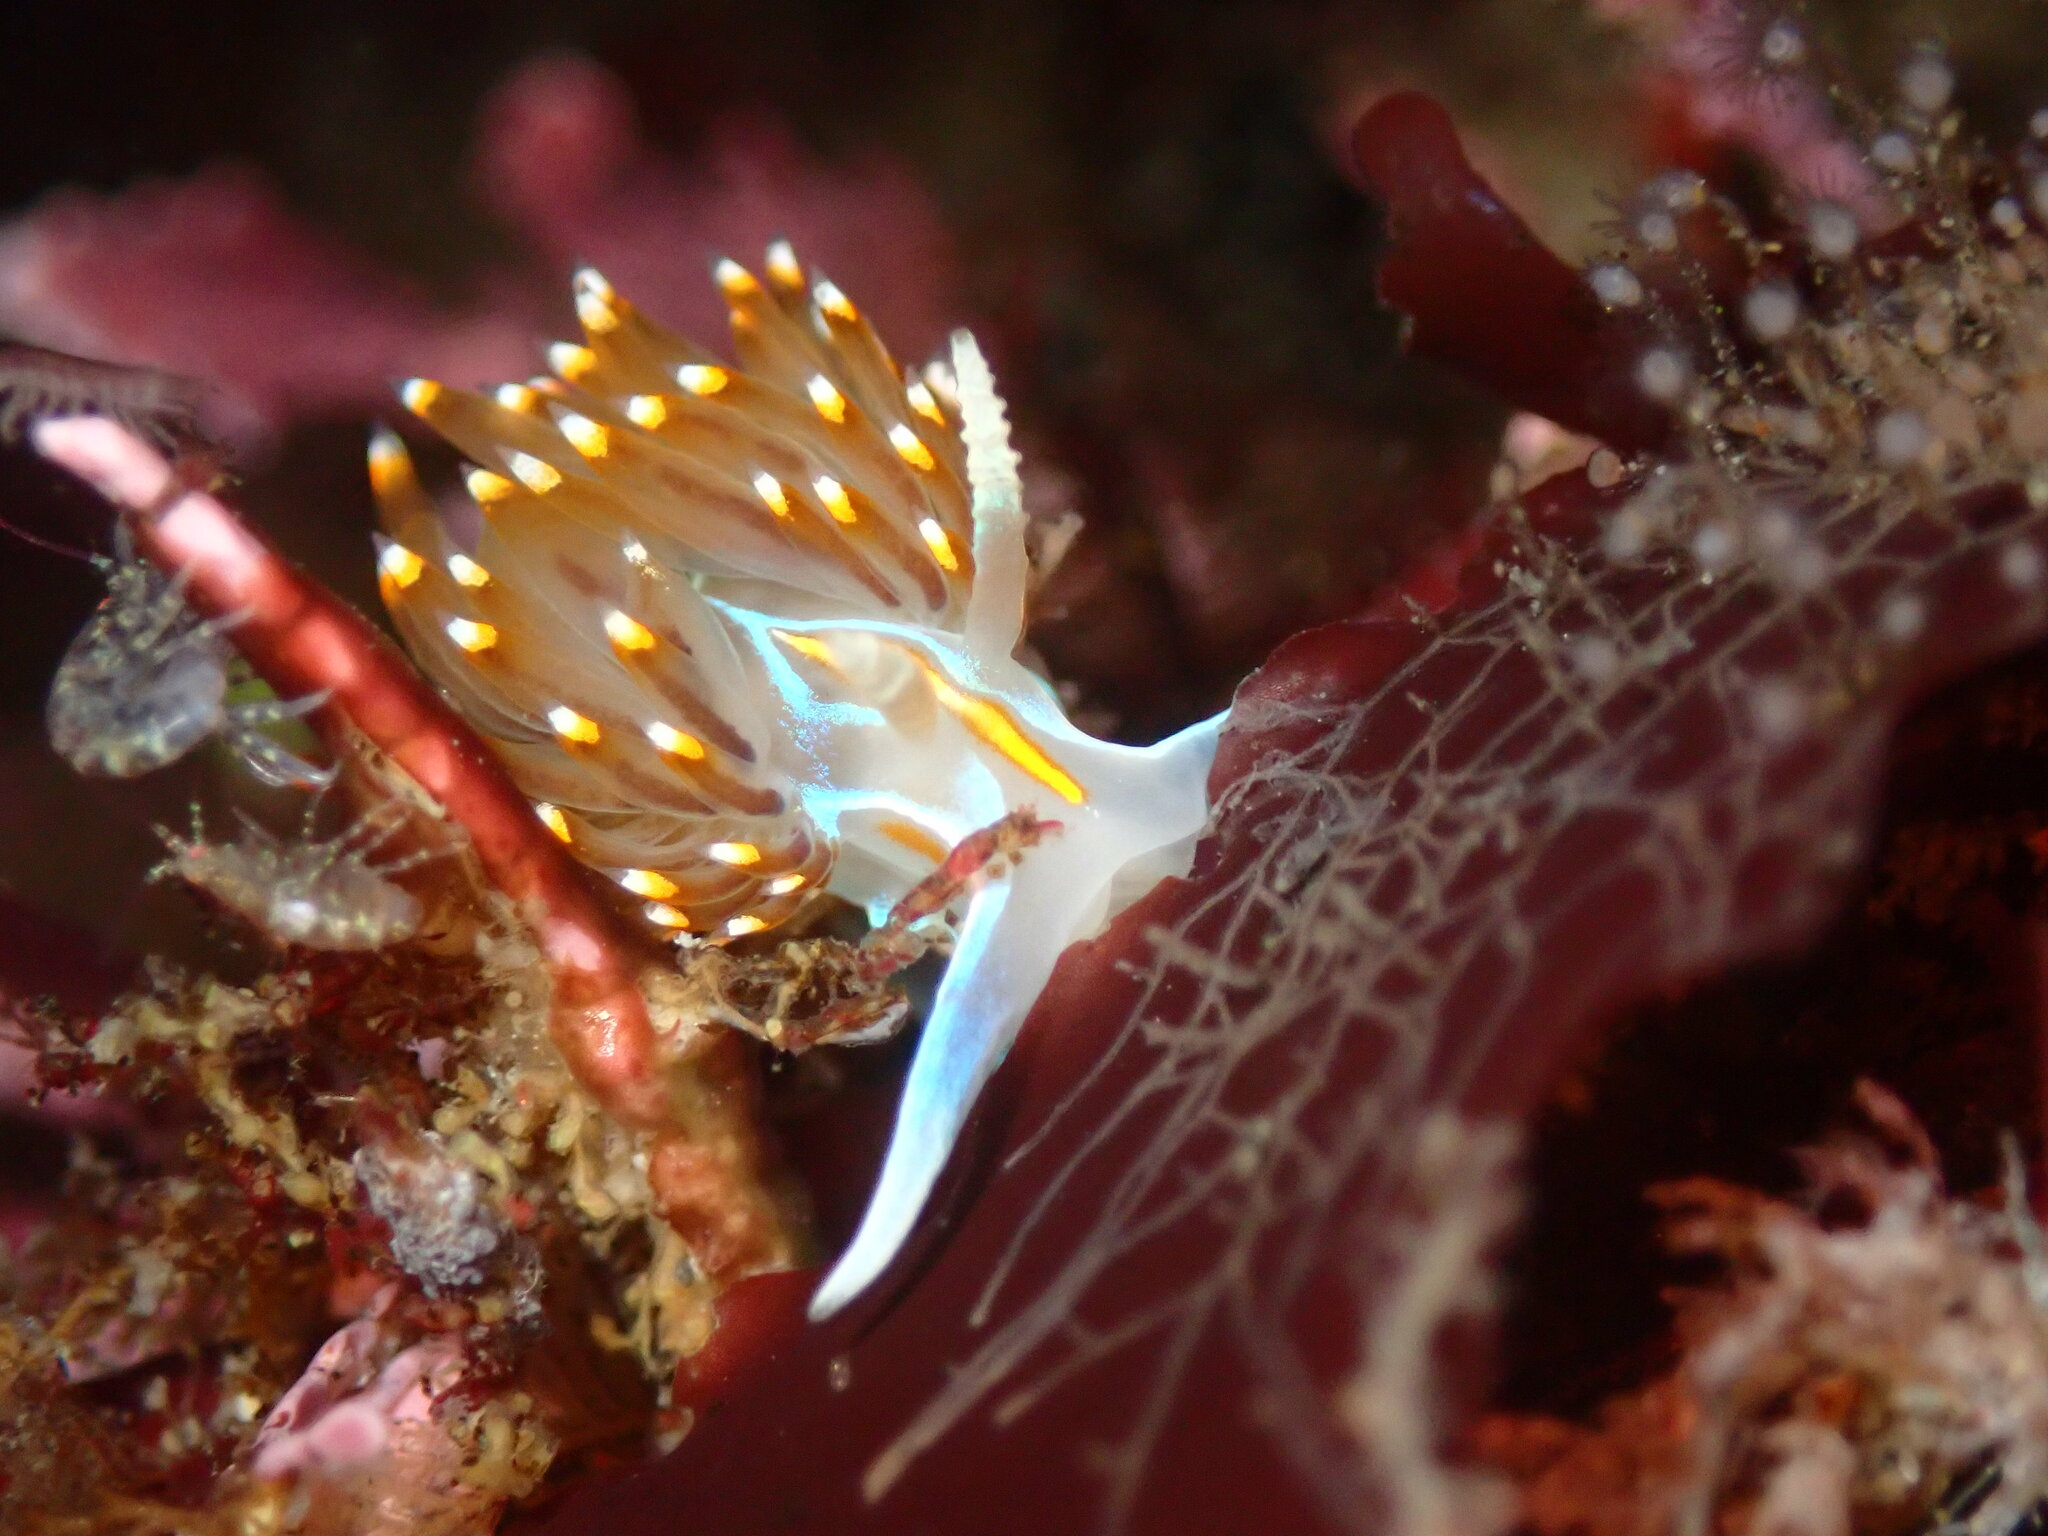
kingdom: Animalia
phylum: Mollusca
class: Gastropoda
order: Nudibranchia
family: Myrrhinidae
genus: Hermissenda
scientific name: Hermissenda opalescens
